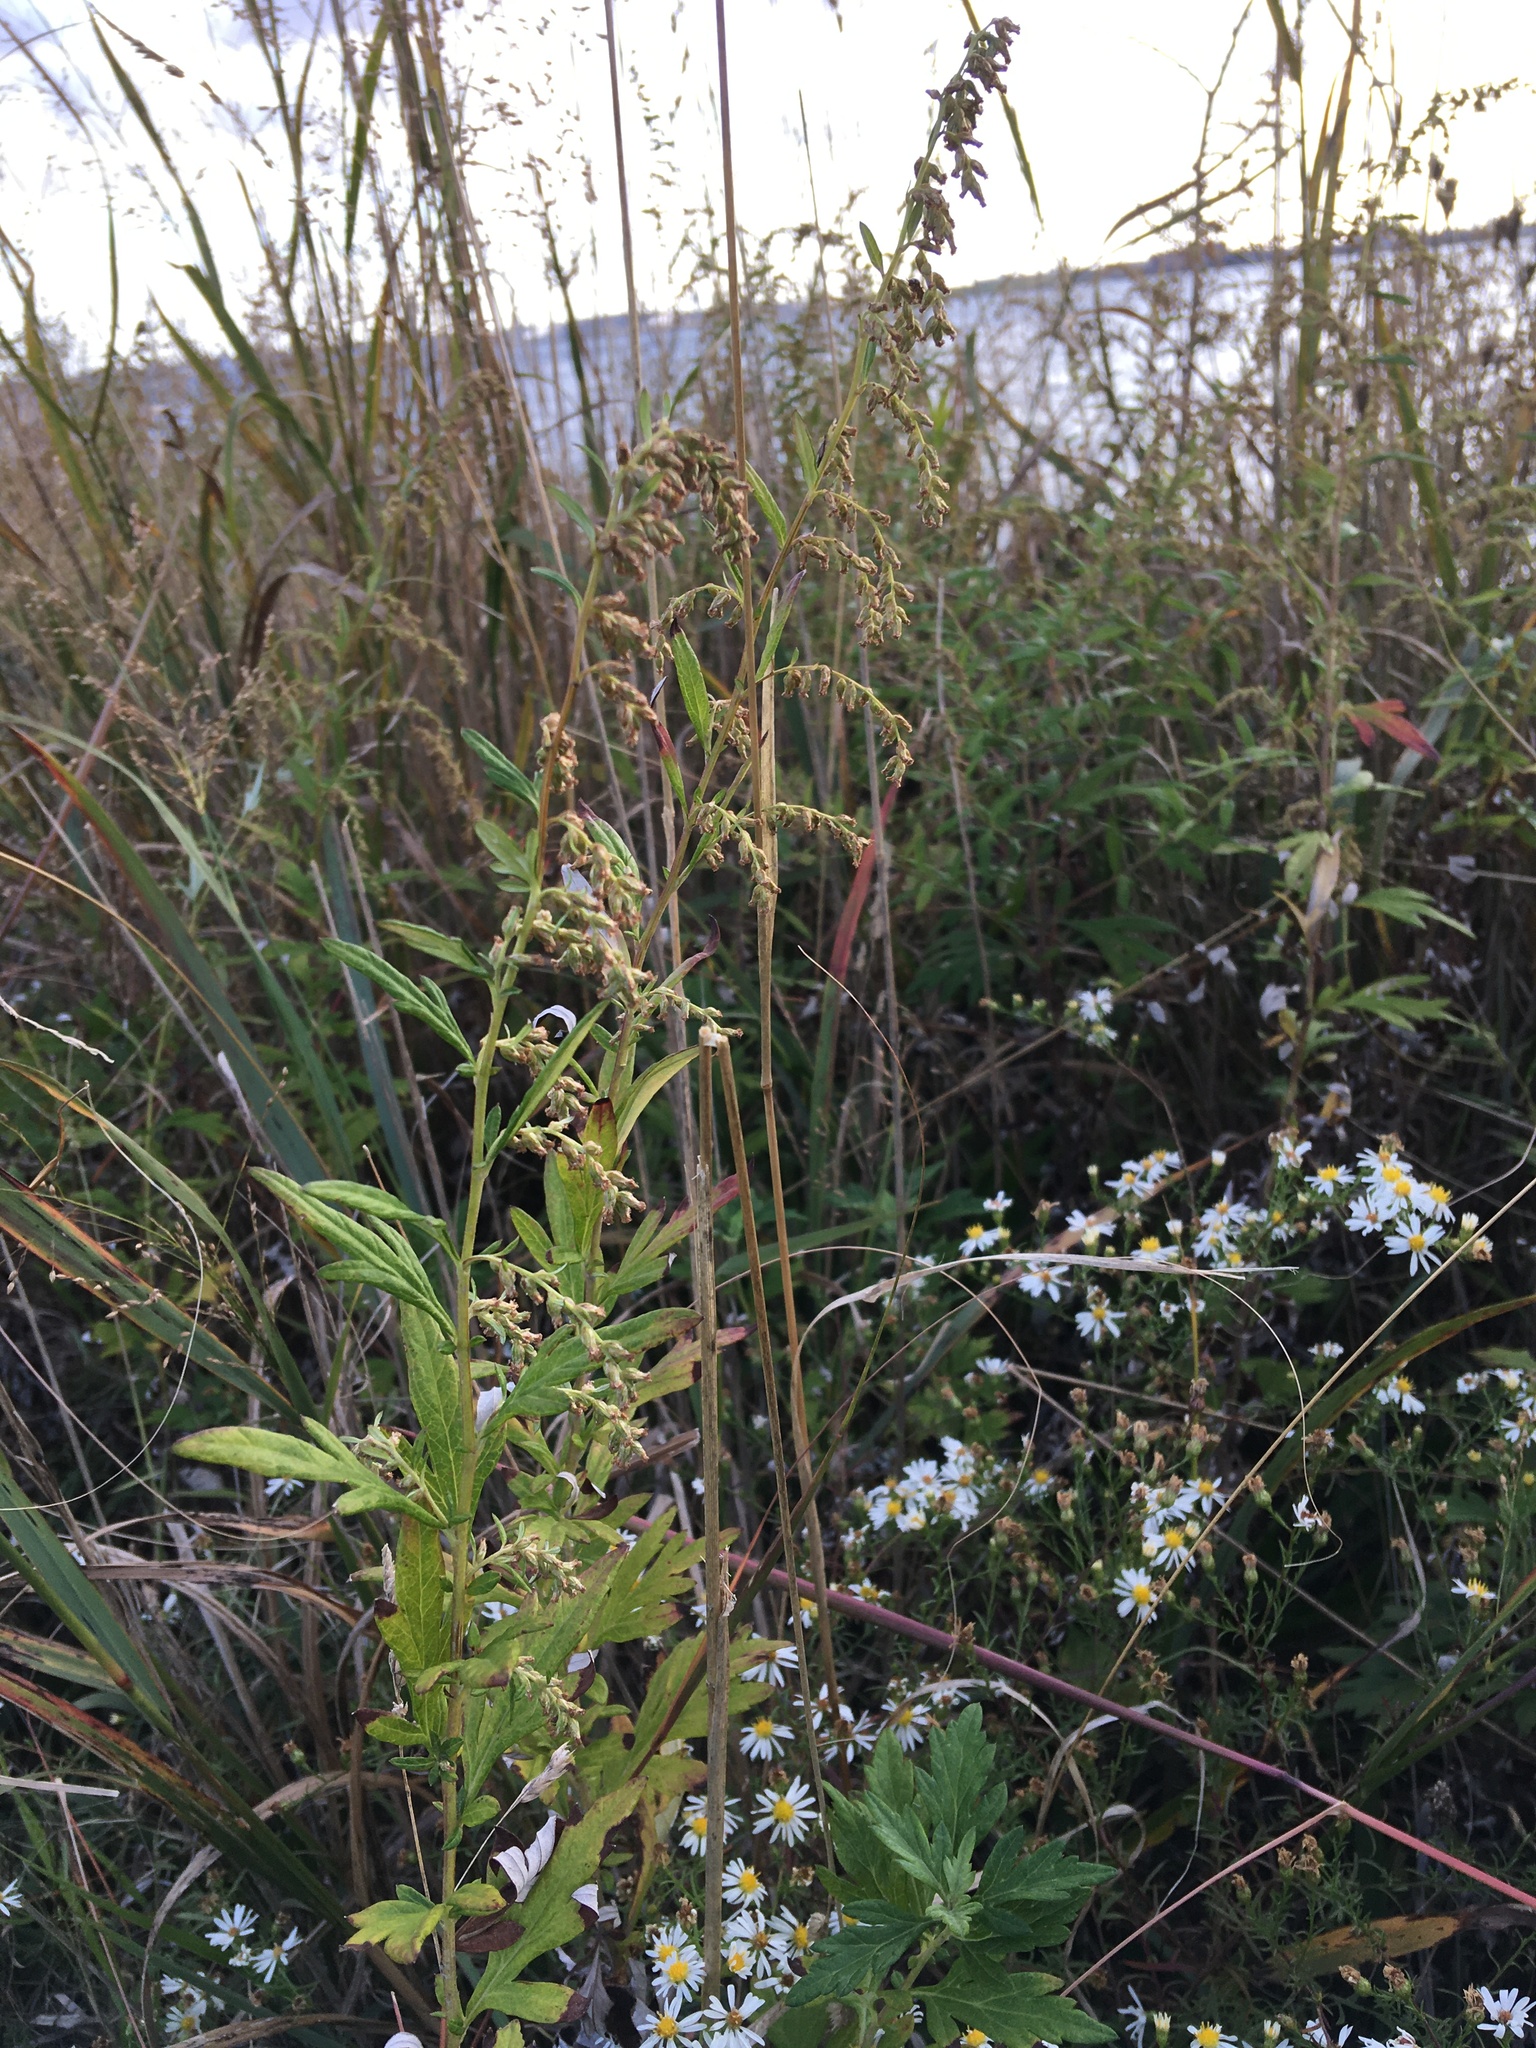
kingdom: Plantae
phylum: Tracheophyta
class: Magnoliopsida
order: Asterales
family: Asteraceae
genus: Artemisia
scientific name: Artemisia vulgaris
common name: Mugwort
